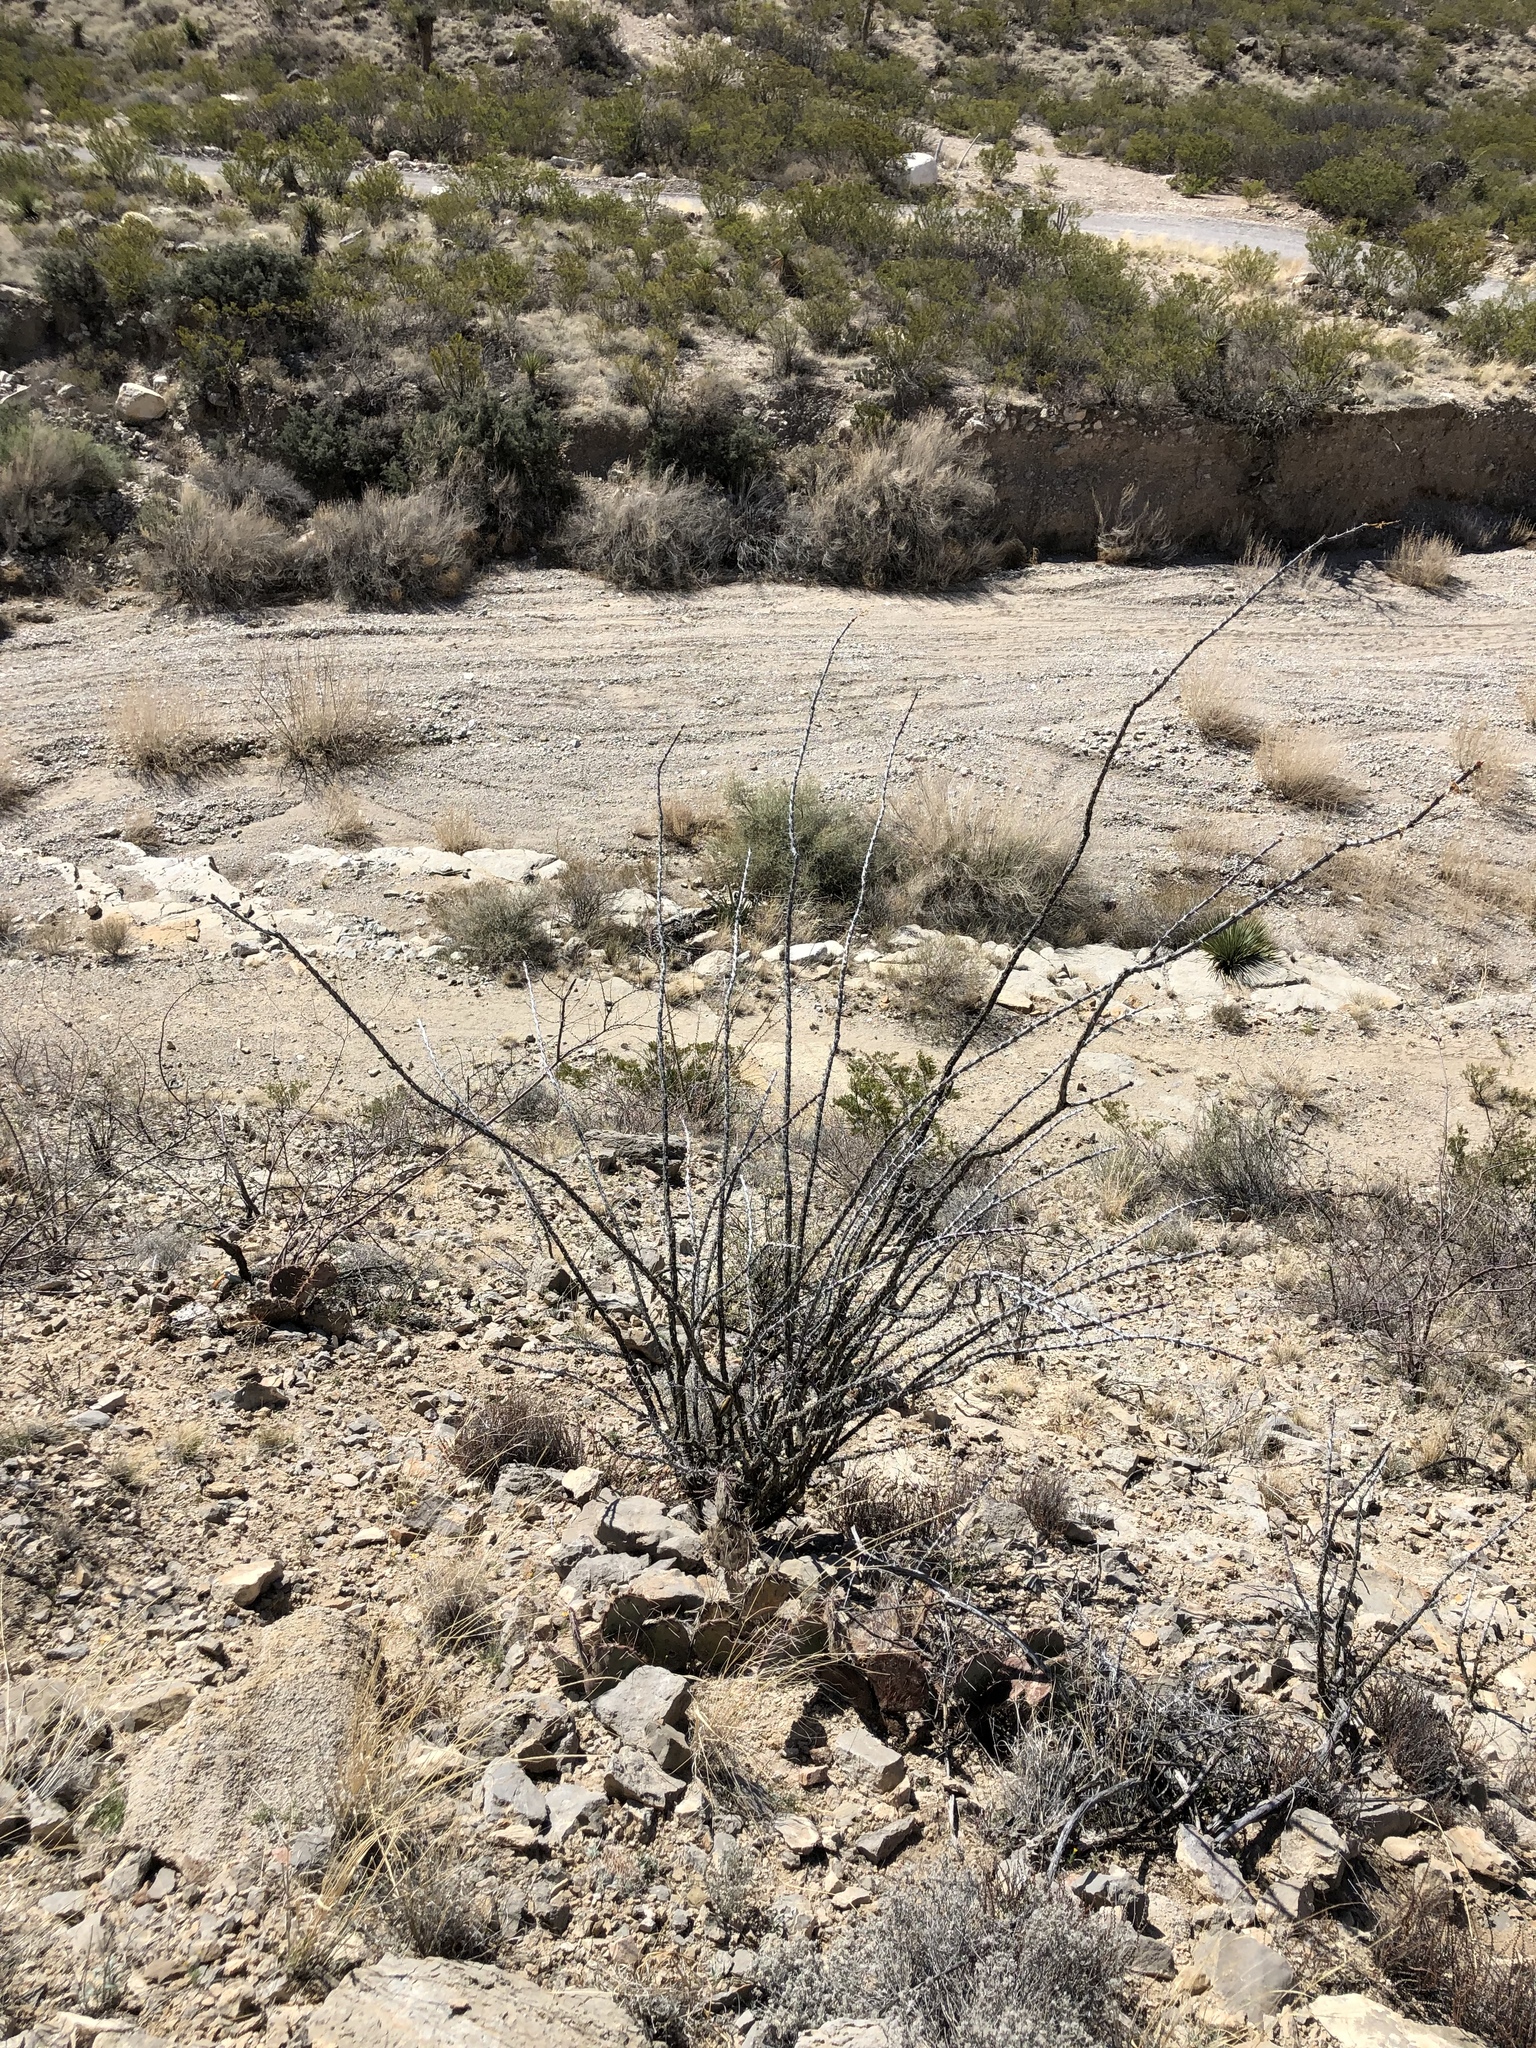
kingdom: Plantae
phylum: Tracheophyta
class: Magnoliopsida
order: Ericales
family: Fouquieriaceae
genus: Fouquieria
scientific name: Fouquieria splendens
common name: Vine-cactus
